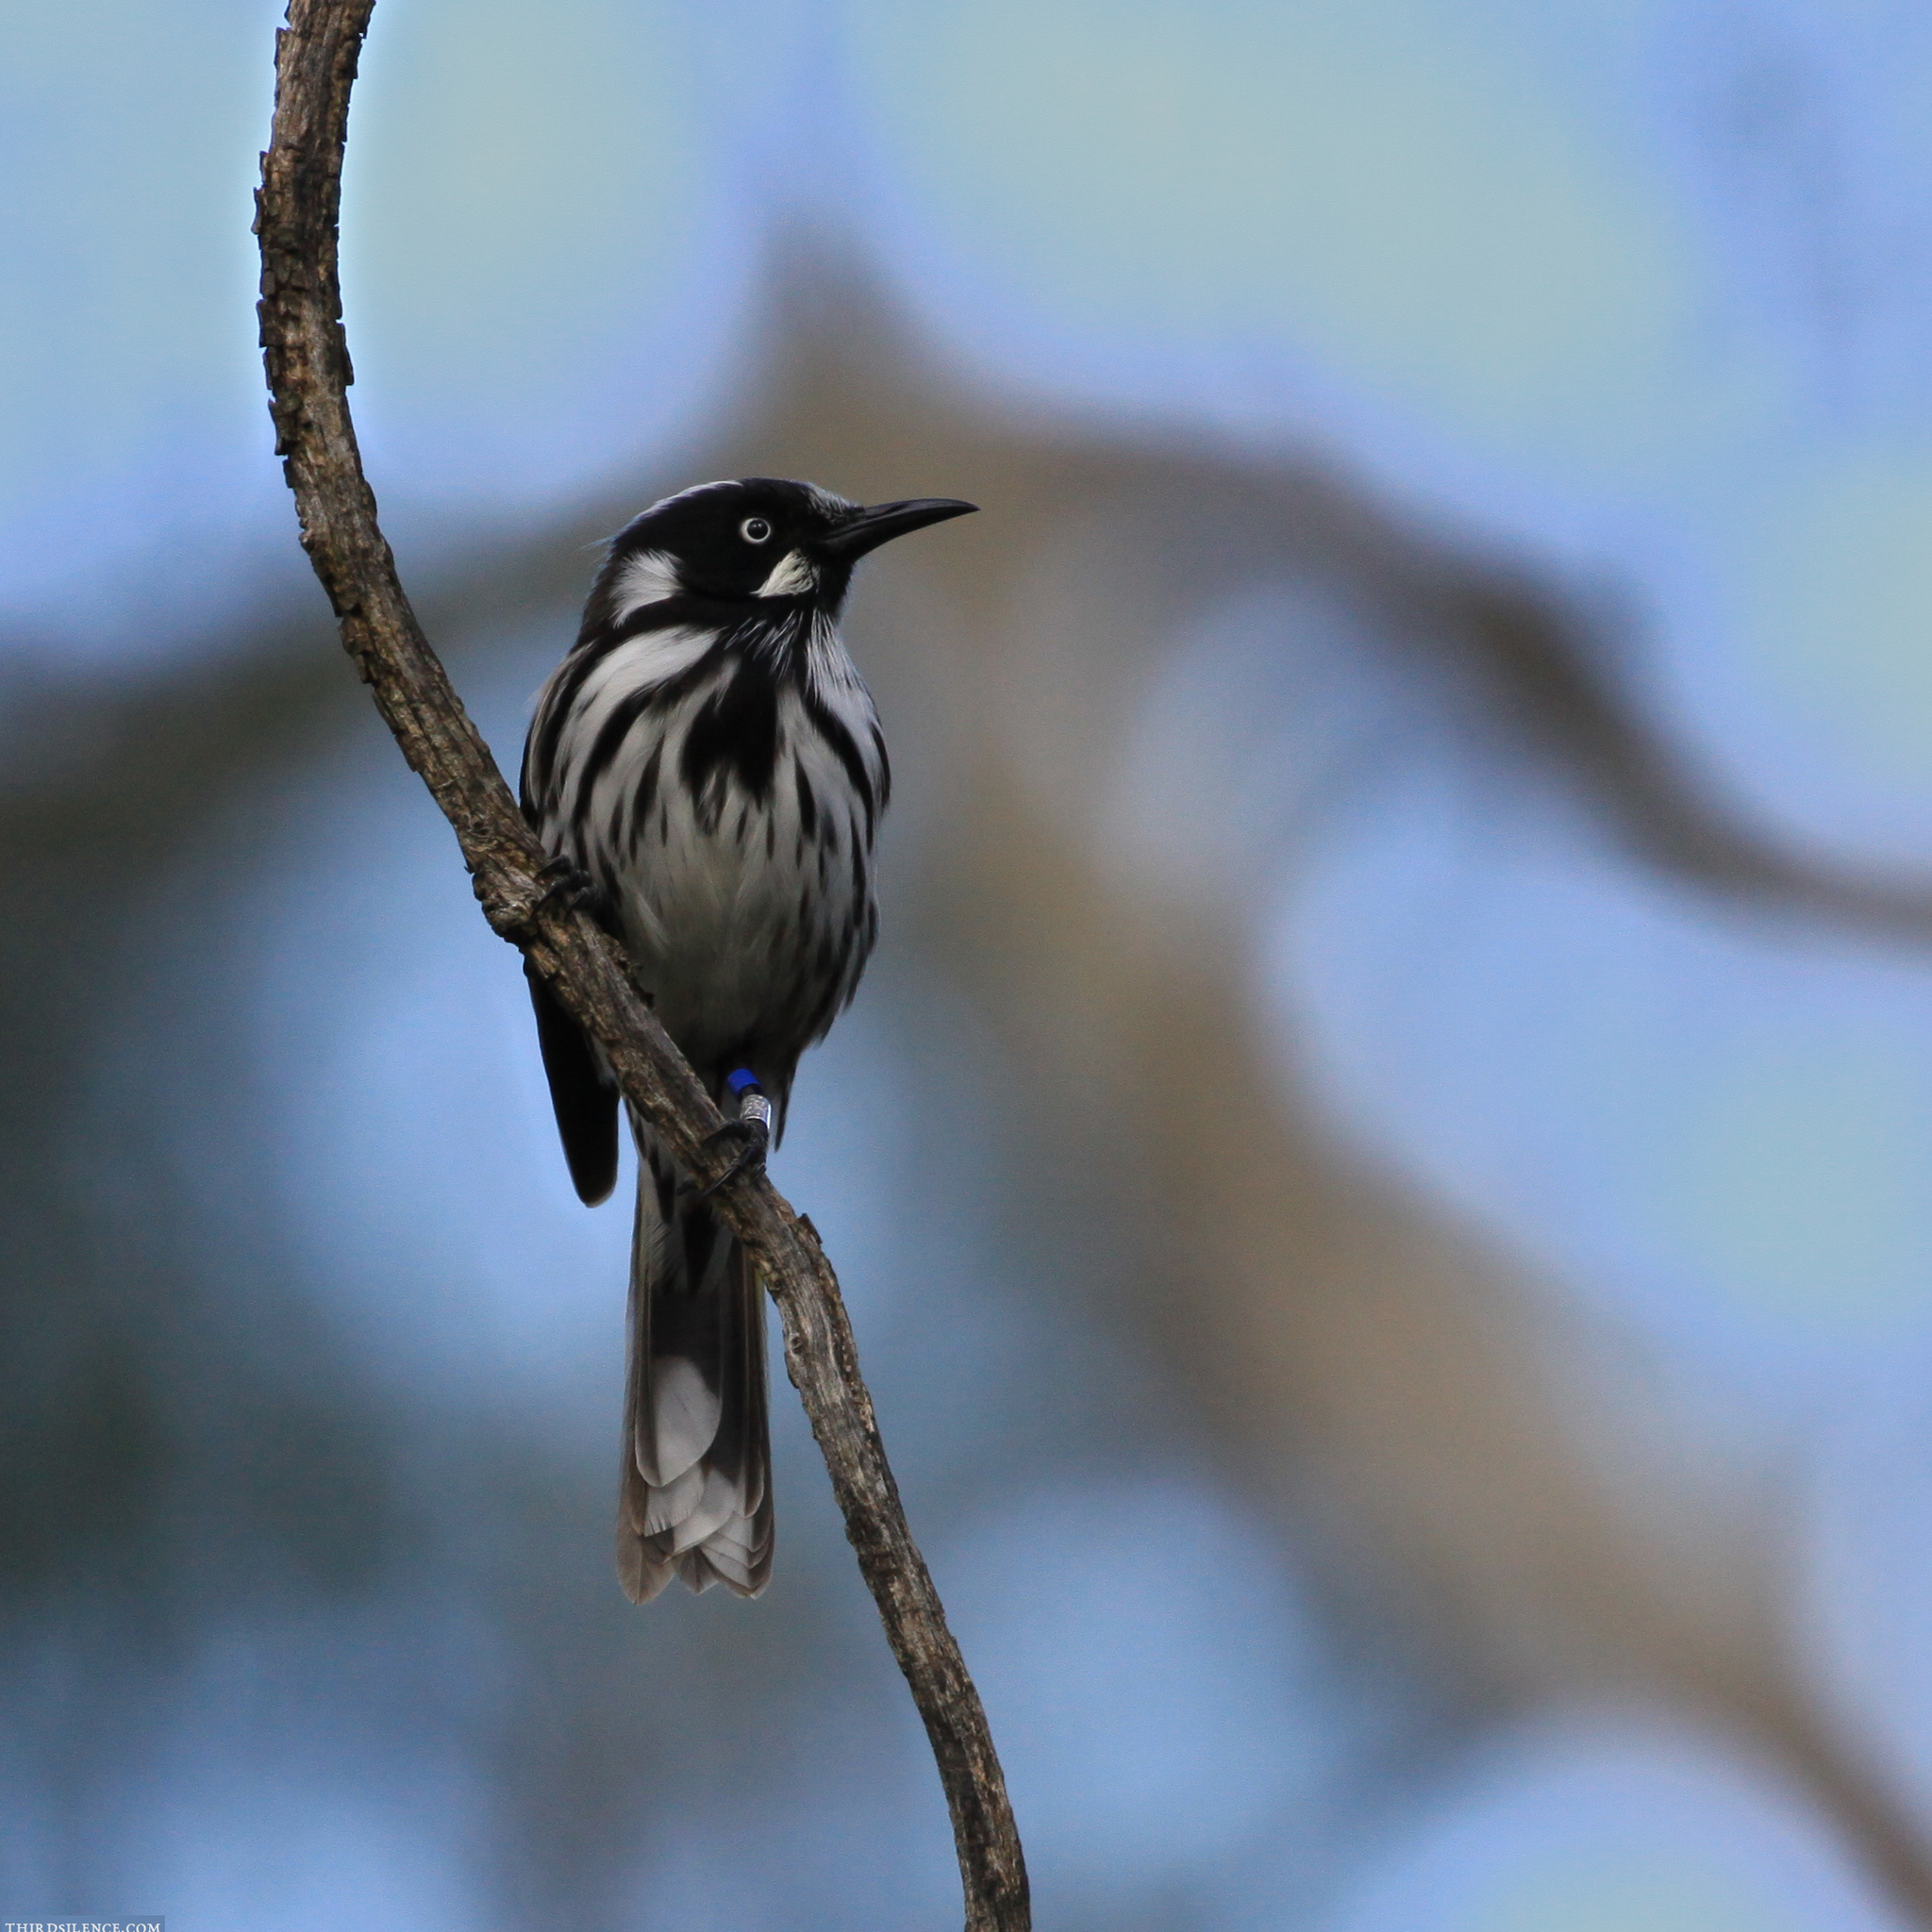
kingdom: Animalia
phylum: Chordata
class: Aves
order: Passeriformes
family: Meliphagidae
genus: Phylidonyris
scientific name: Phylidonyris novaehollandiae
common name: New holland honeyeater
